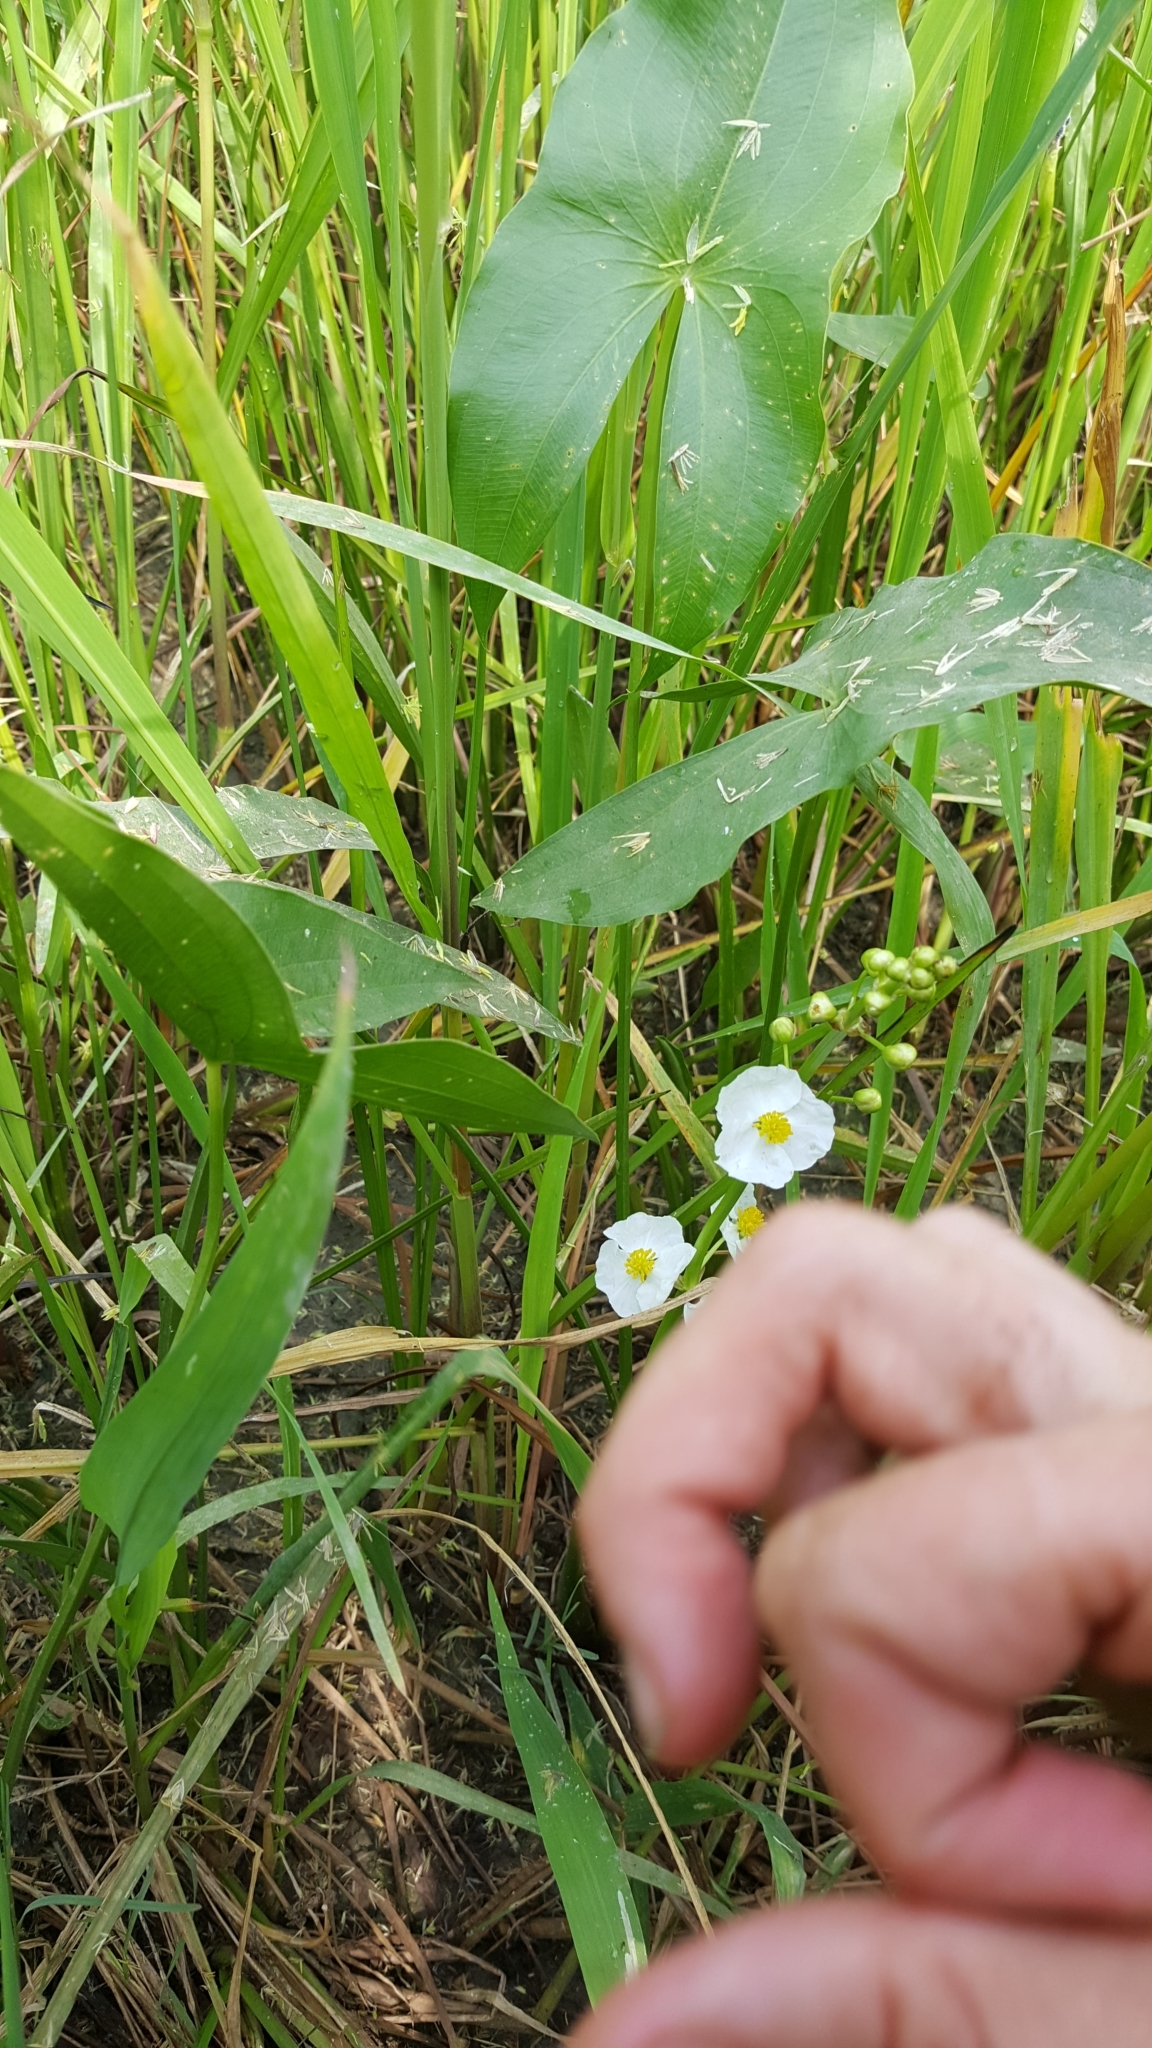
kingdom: Plantae
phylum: Tracheophyta
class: Liliopsida
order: Alismatales
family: Alismataceae
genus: Sagittaria
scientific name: Sagittaria latifolia
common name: Duck-potato
